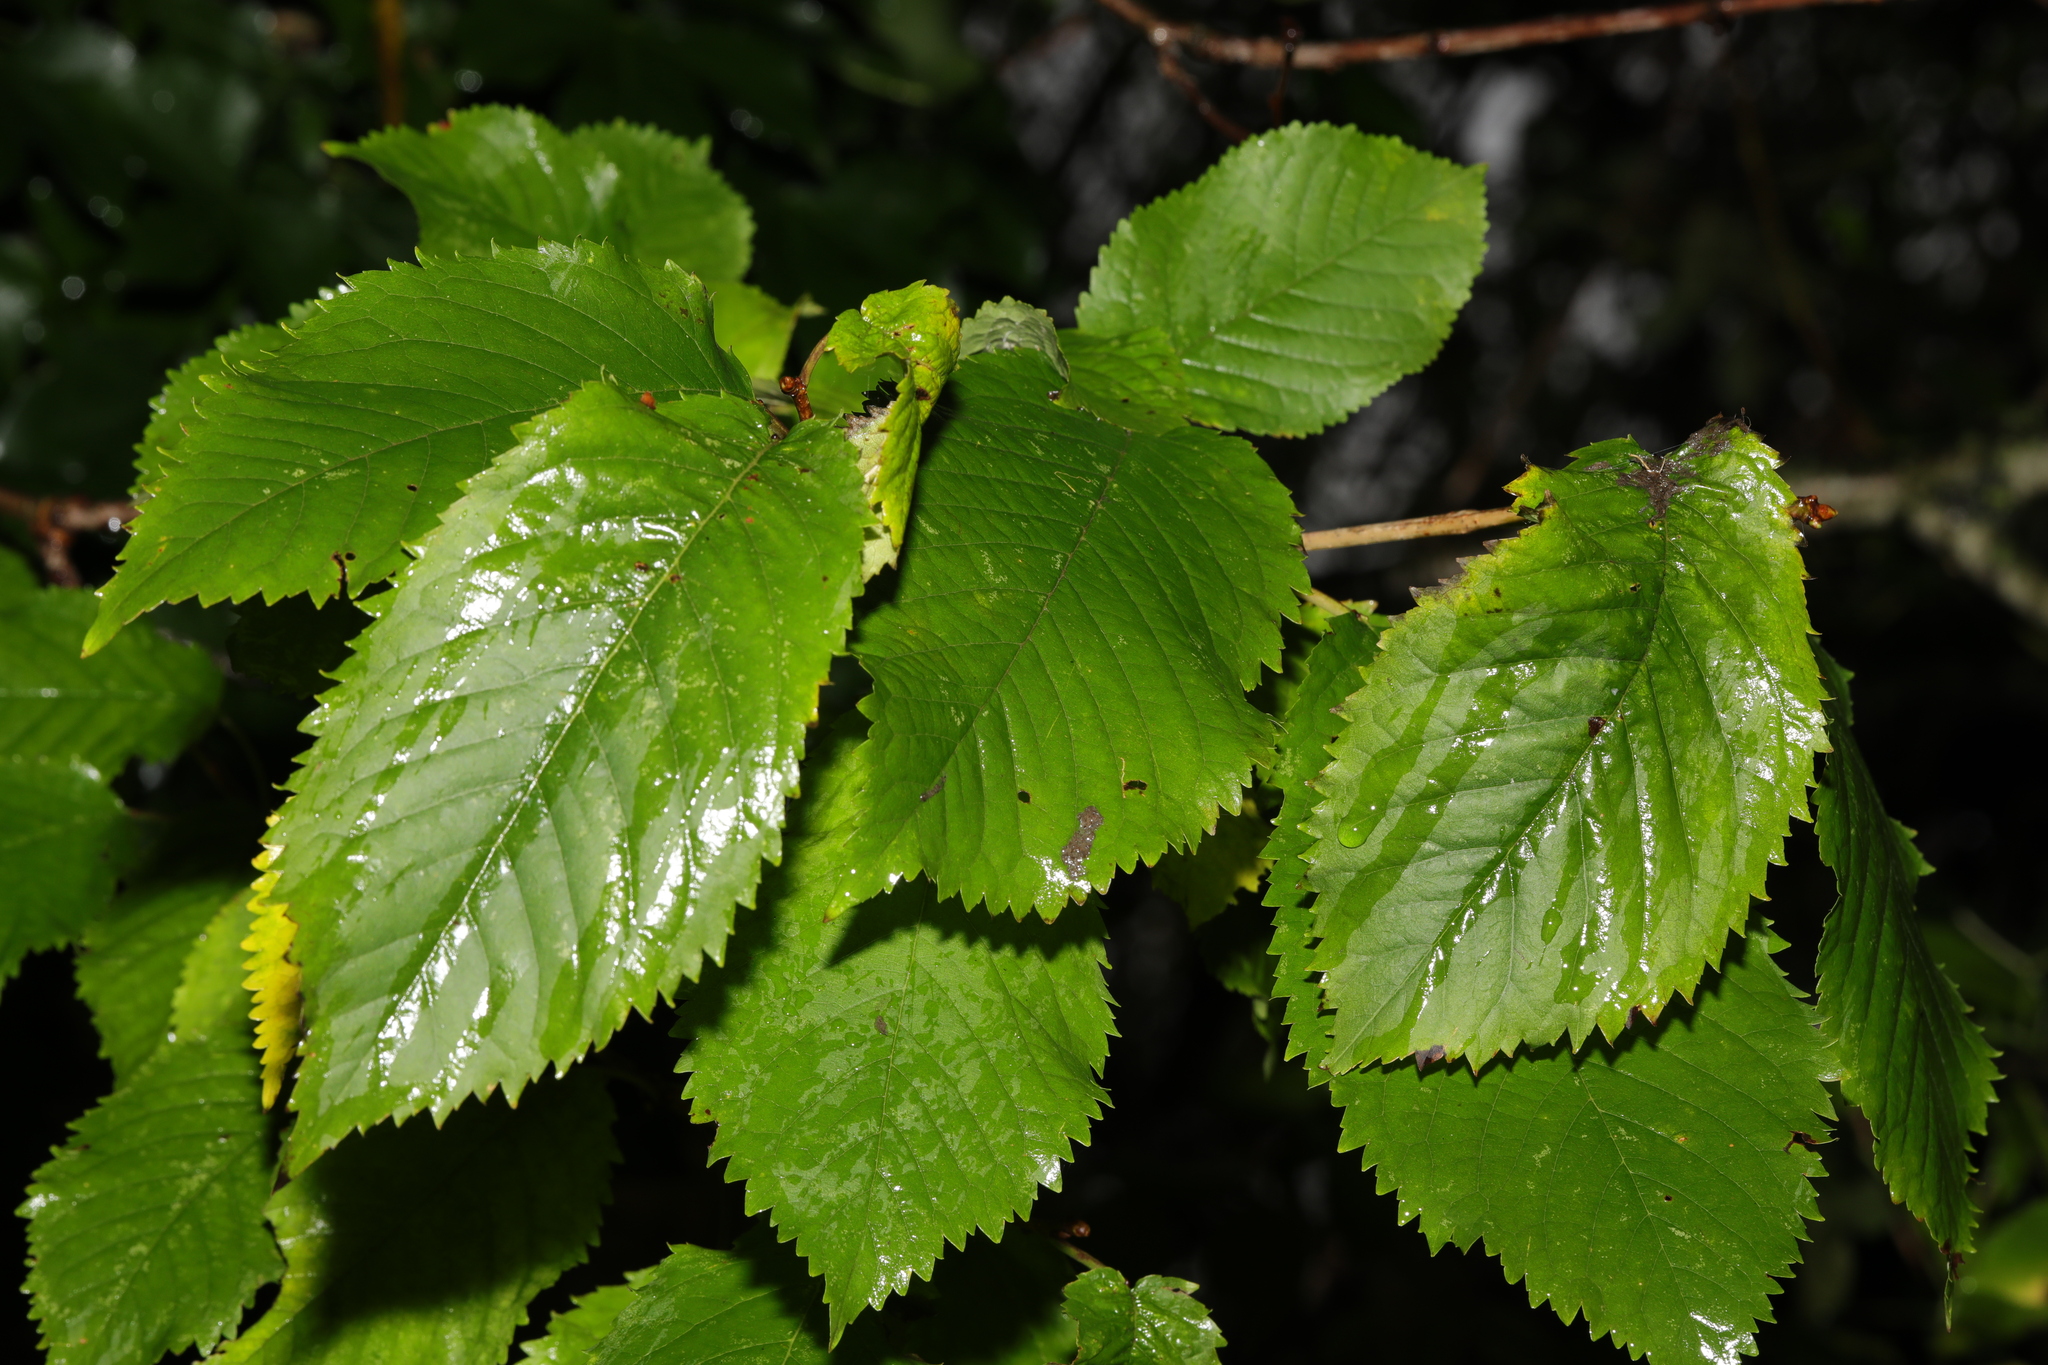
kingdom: Plantae
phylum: Tracheophyta
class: Magnoliopsida
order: Rosales
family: Rosaceae
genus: Prunus
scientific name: Prunus avium
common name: Sweet cherry
